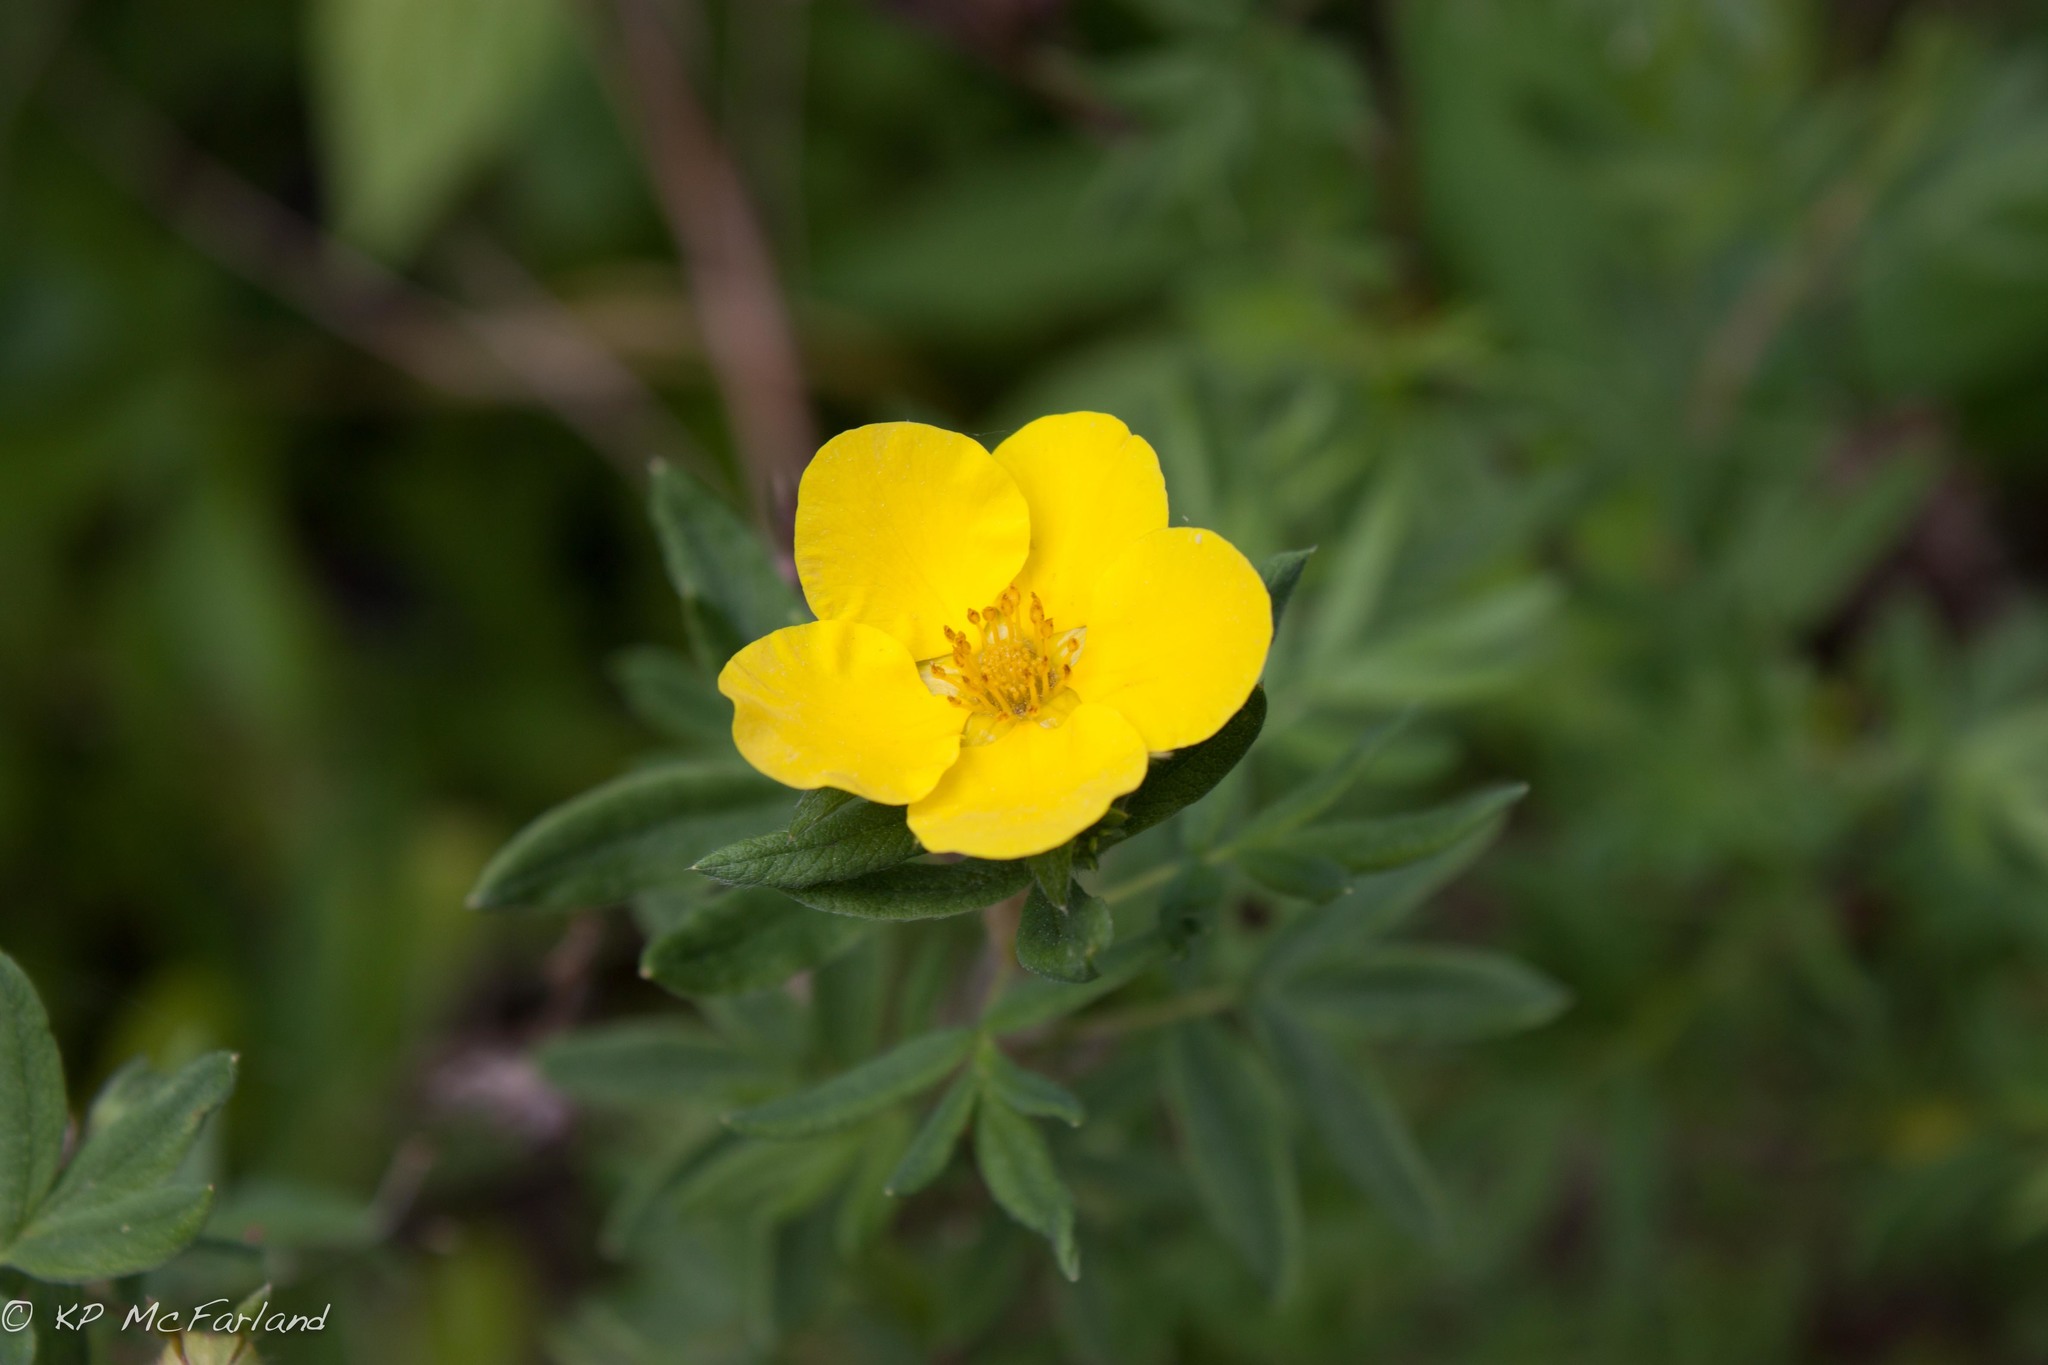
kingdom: Plantae
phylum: Tracheophyta
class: Magnoliopsida
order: Rosales
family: Rosaceae
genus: Dasiphora
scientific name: Dasiphora fruticosa
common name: Shrubby cinquefoil
